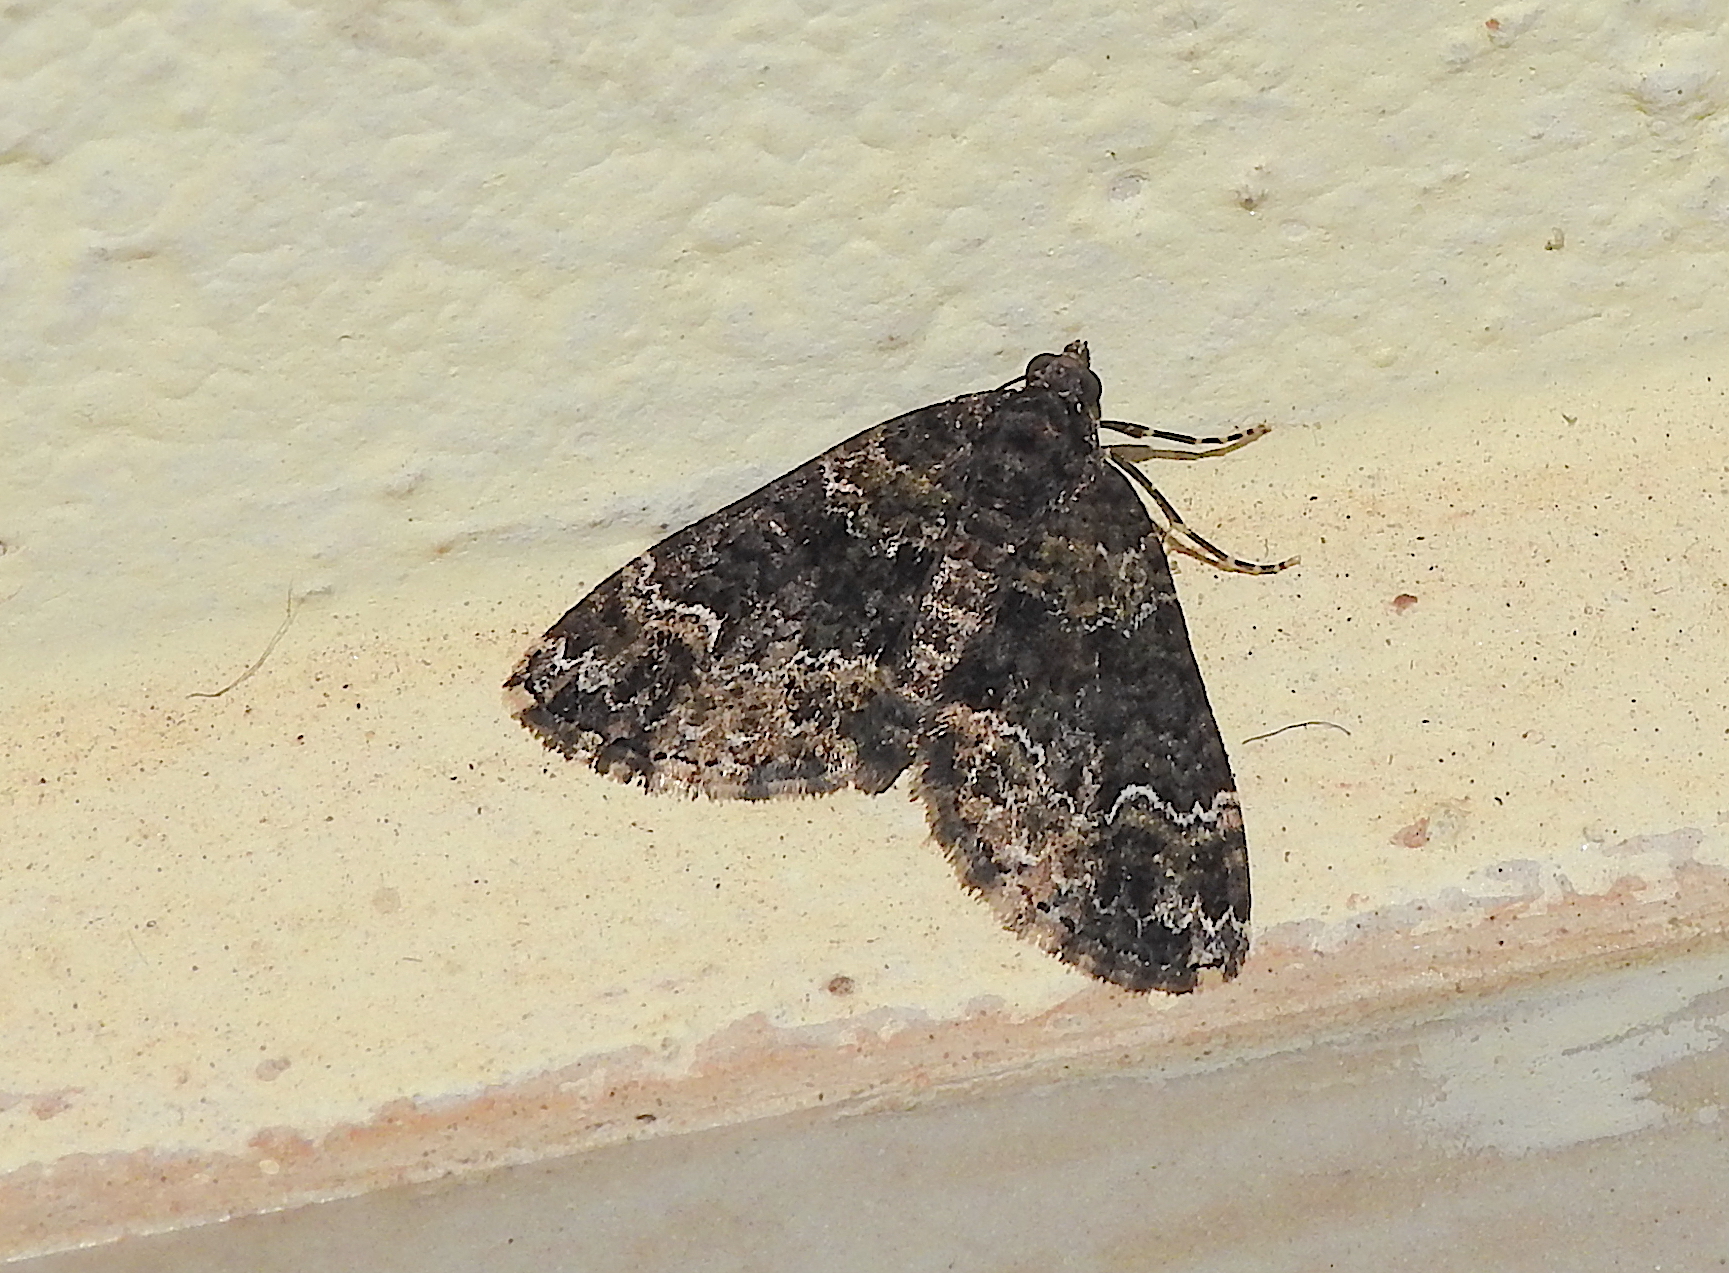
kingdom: Animalia
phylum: Arthropoda
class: Insecta
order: Lepidoptera
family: Geometridae
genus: Xanthorhoe
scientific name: Xanthorhoe fumipennis
